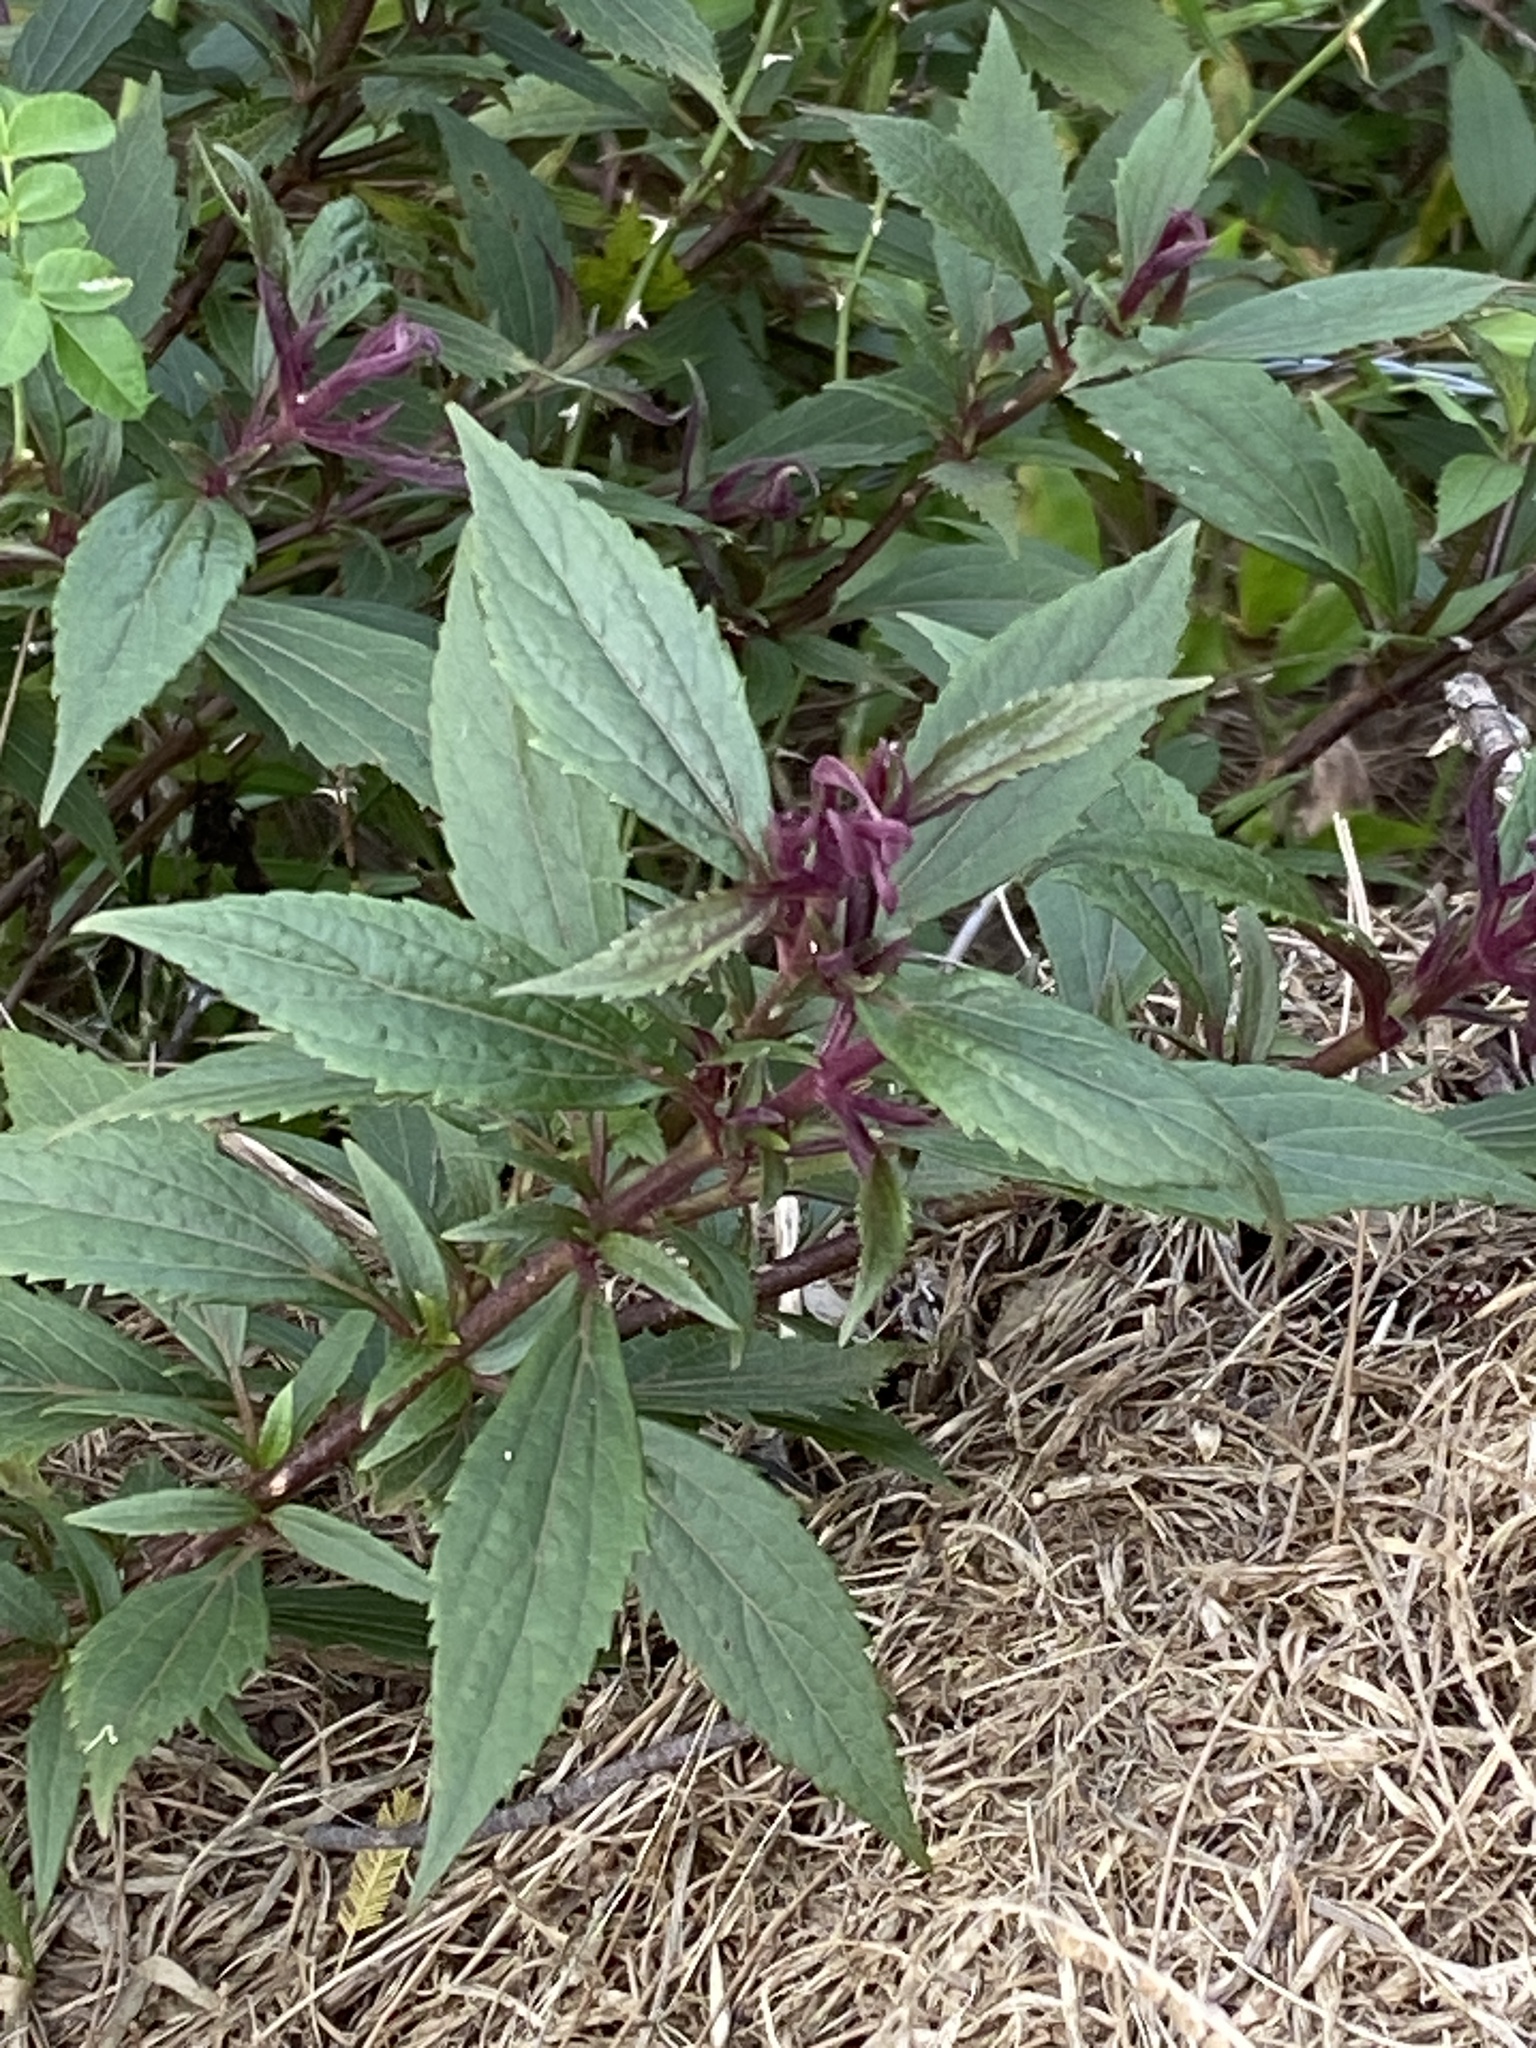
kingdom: Plantae
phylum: Tracheophyta
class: Magnoliopsida
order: Asterales
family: Asteraceae
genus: Ageratina
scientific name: Ageratina riparia
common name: Creeping croftonweed
